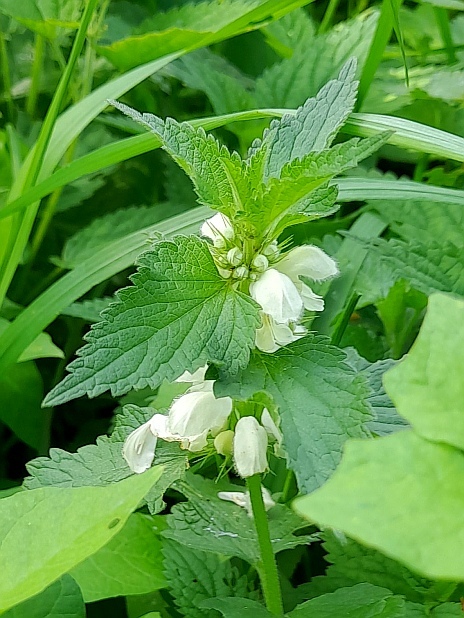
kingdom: Plantae
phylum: Tracheophyta
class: Magnoliopsida
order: Lamiales
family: Lamiaceae
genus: Lamium
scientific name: Lamium album
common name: White dead-nettle
